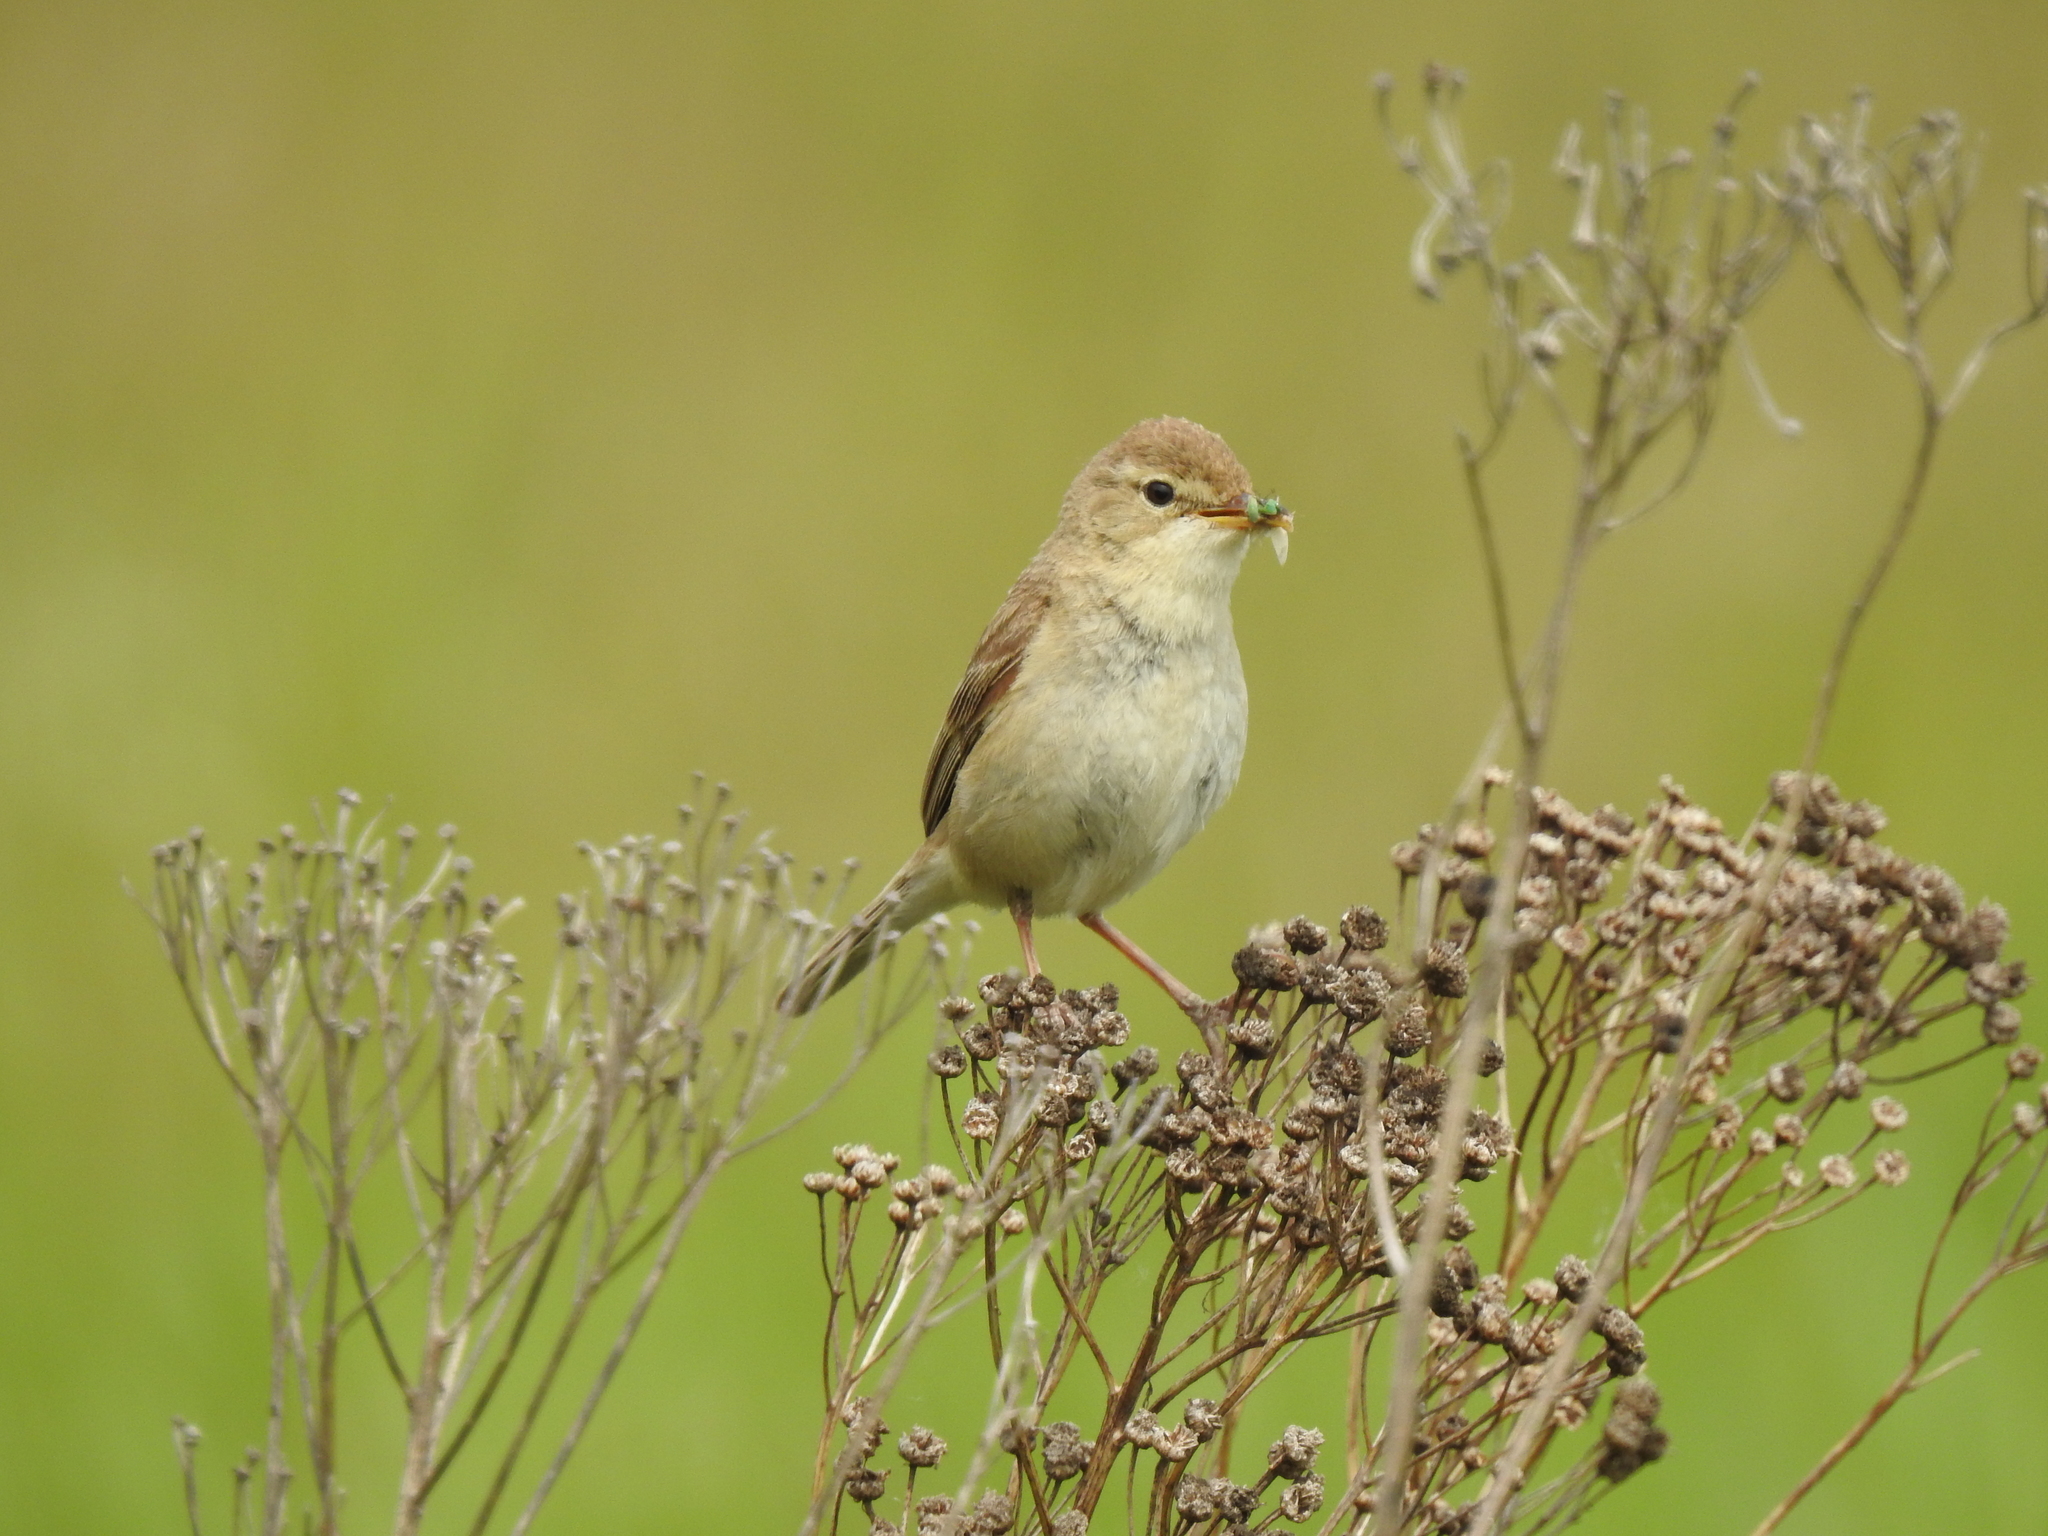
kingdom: Animalia
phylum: Chordata
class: Aves
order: Passeriformes
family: Acrocephalidae
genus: Iduna
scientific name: Iduna caligata
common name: Booted warbler
